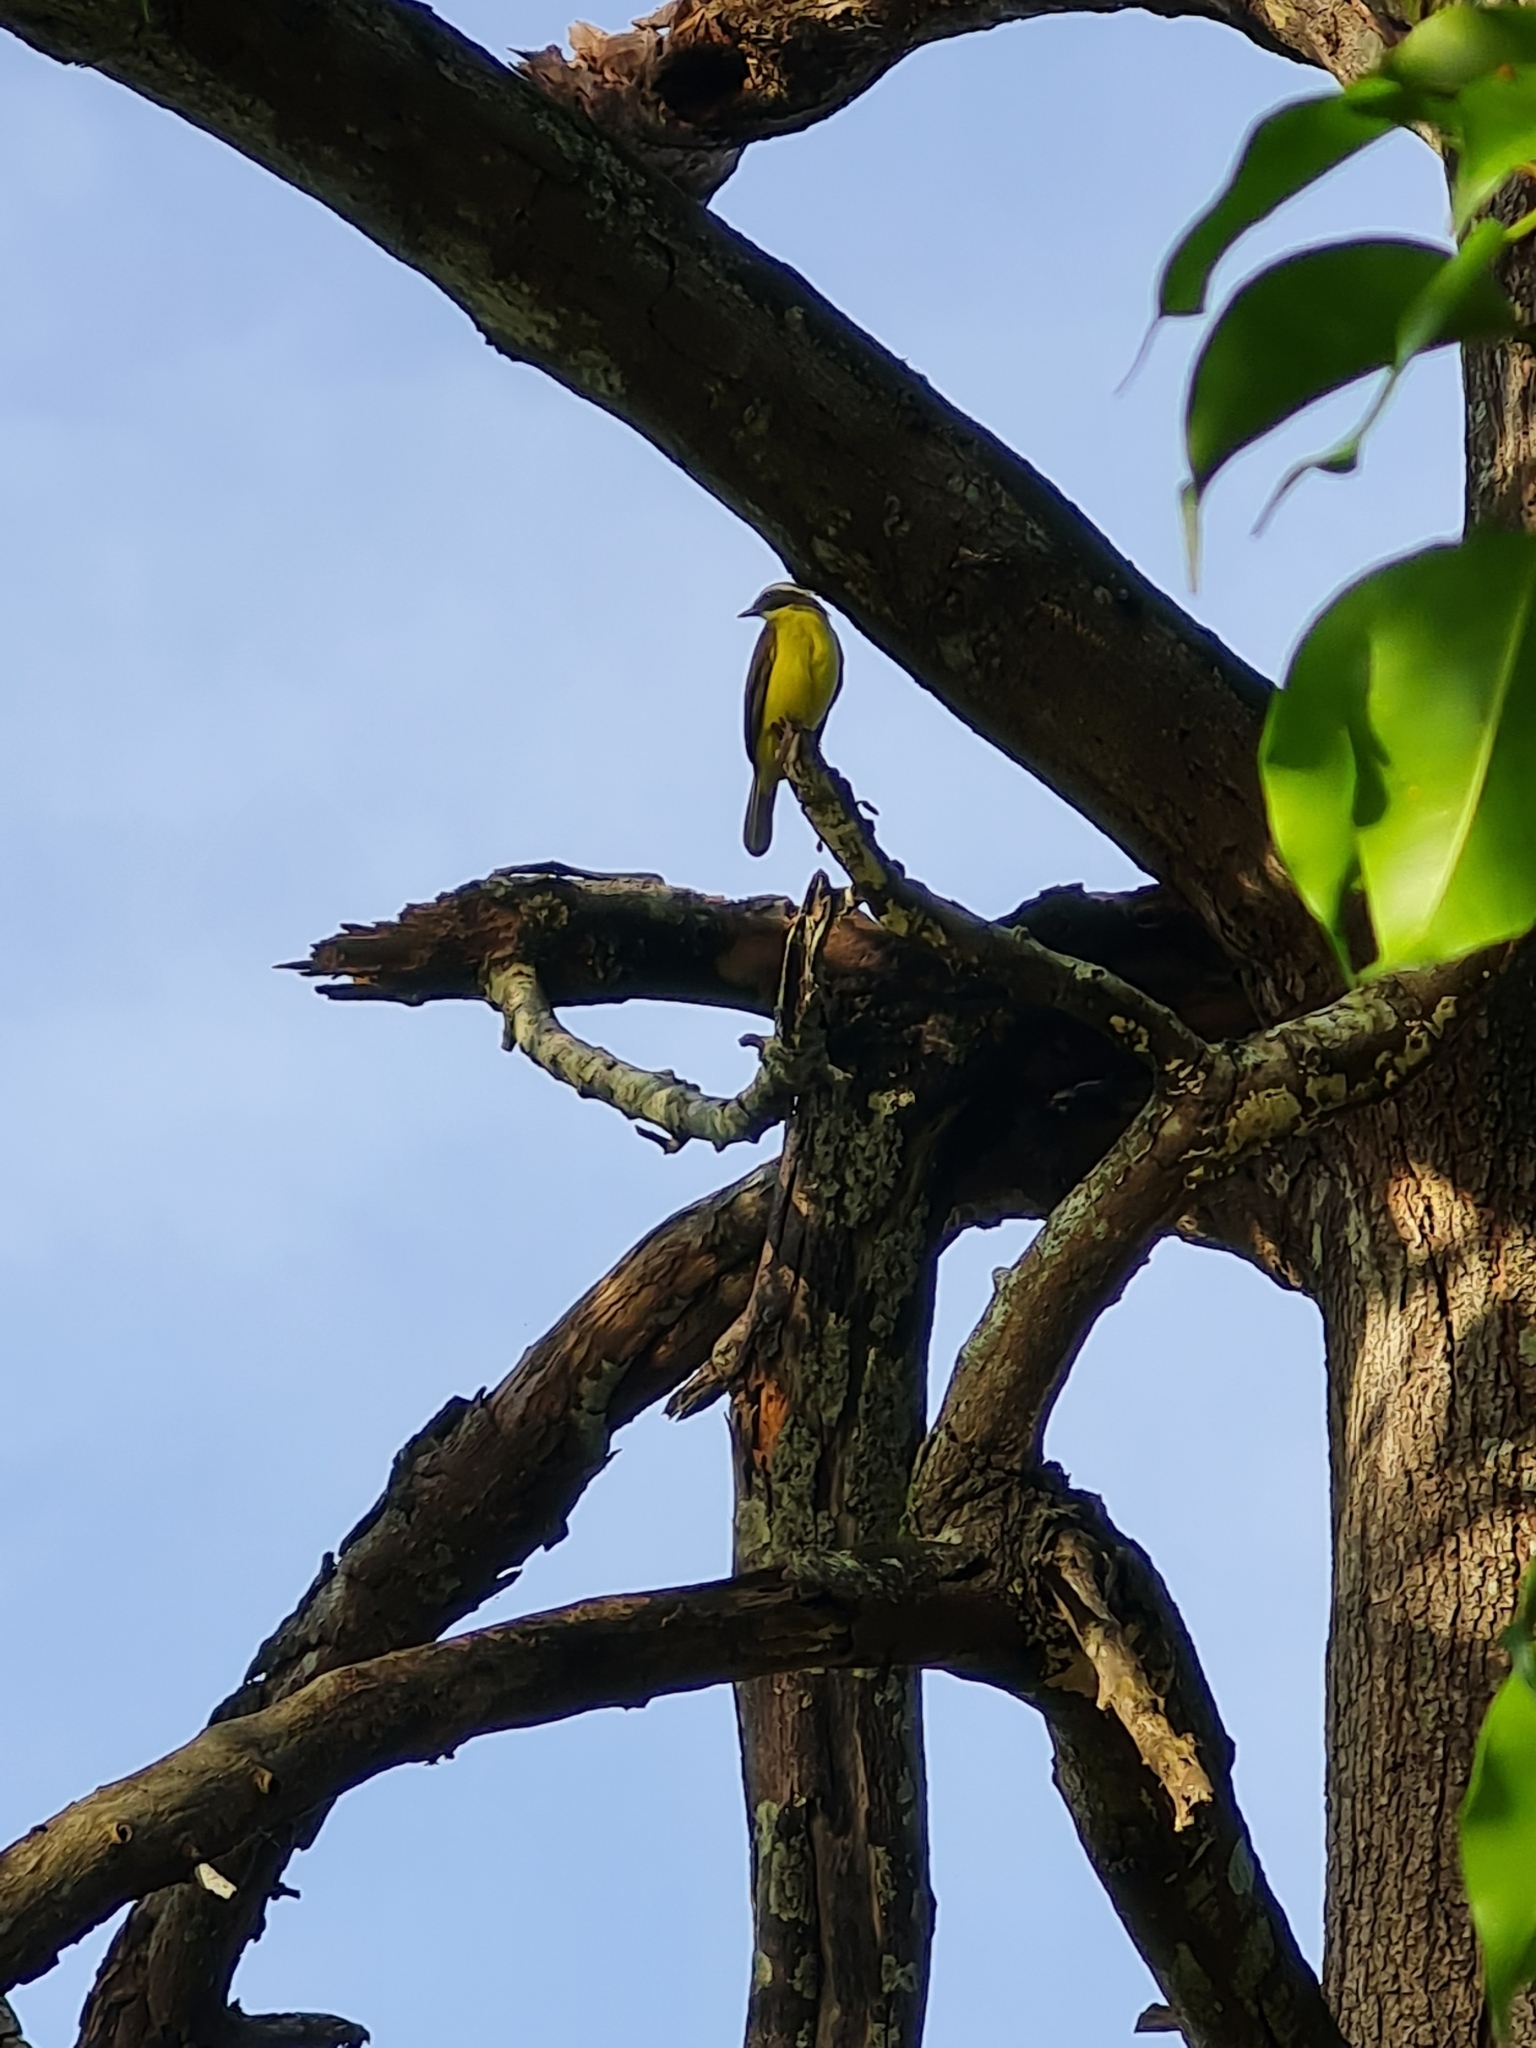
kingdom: Animalia
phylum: Chordata
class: Aves
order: Passeriformes
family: Tyrannidae
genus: Myiozetetes
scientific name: Myiozetetes similis
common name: Social flycatcher
